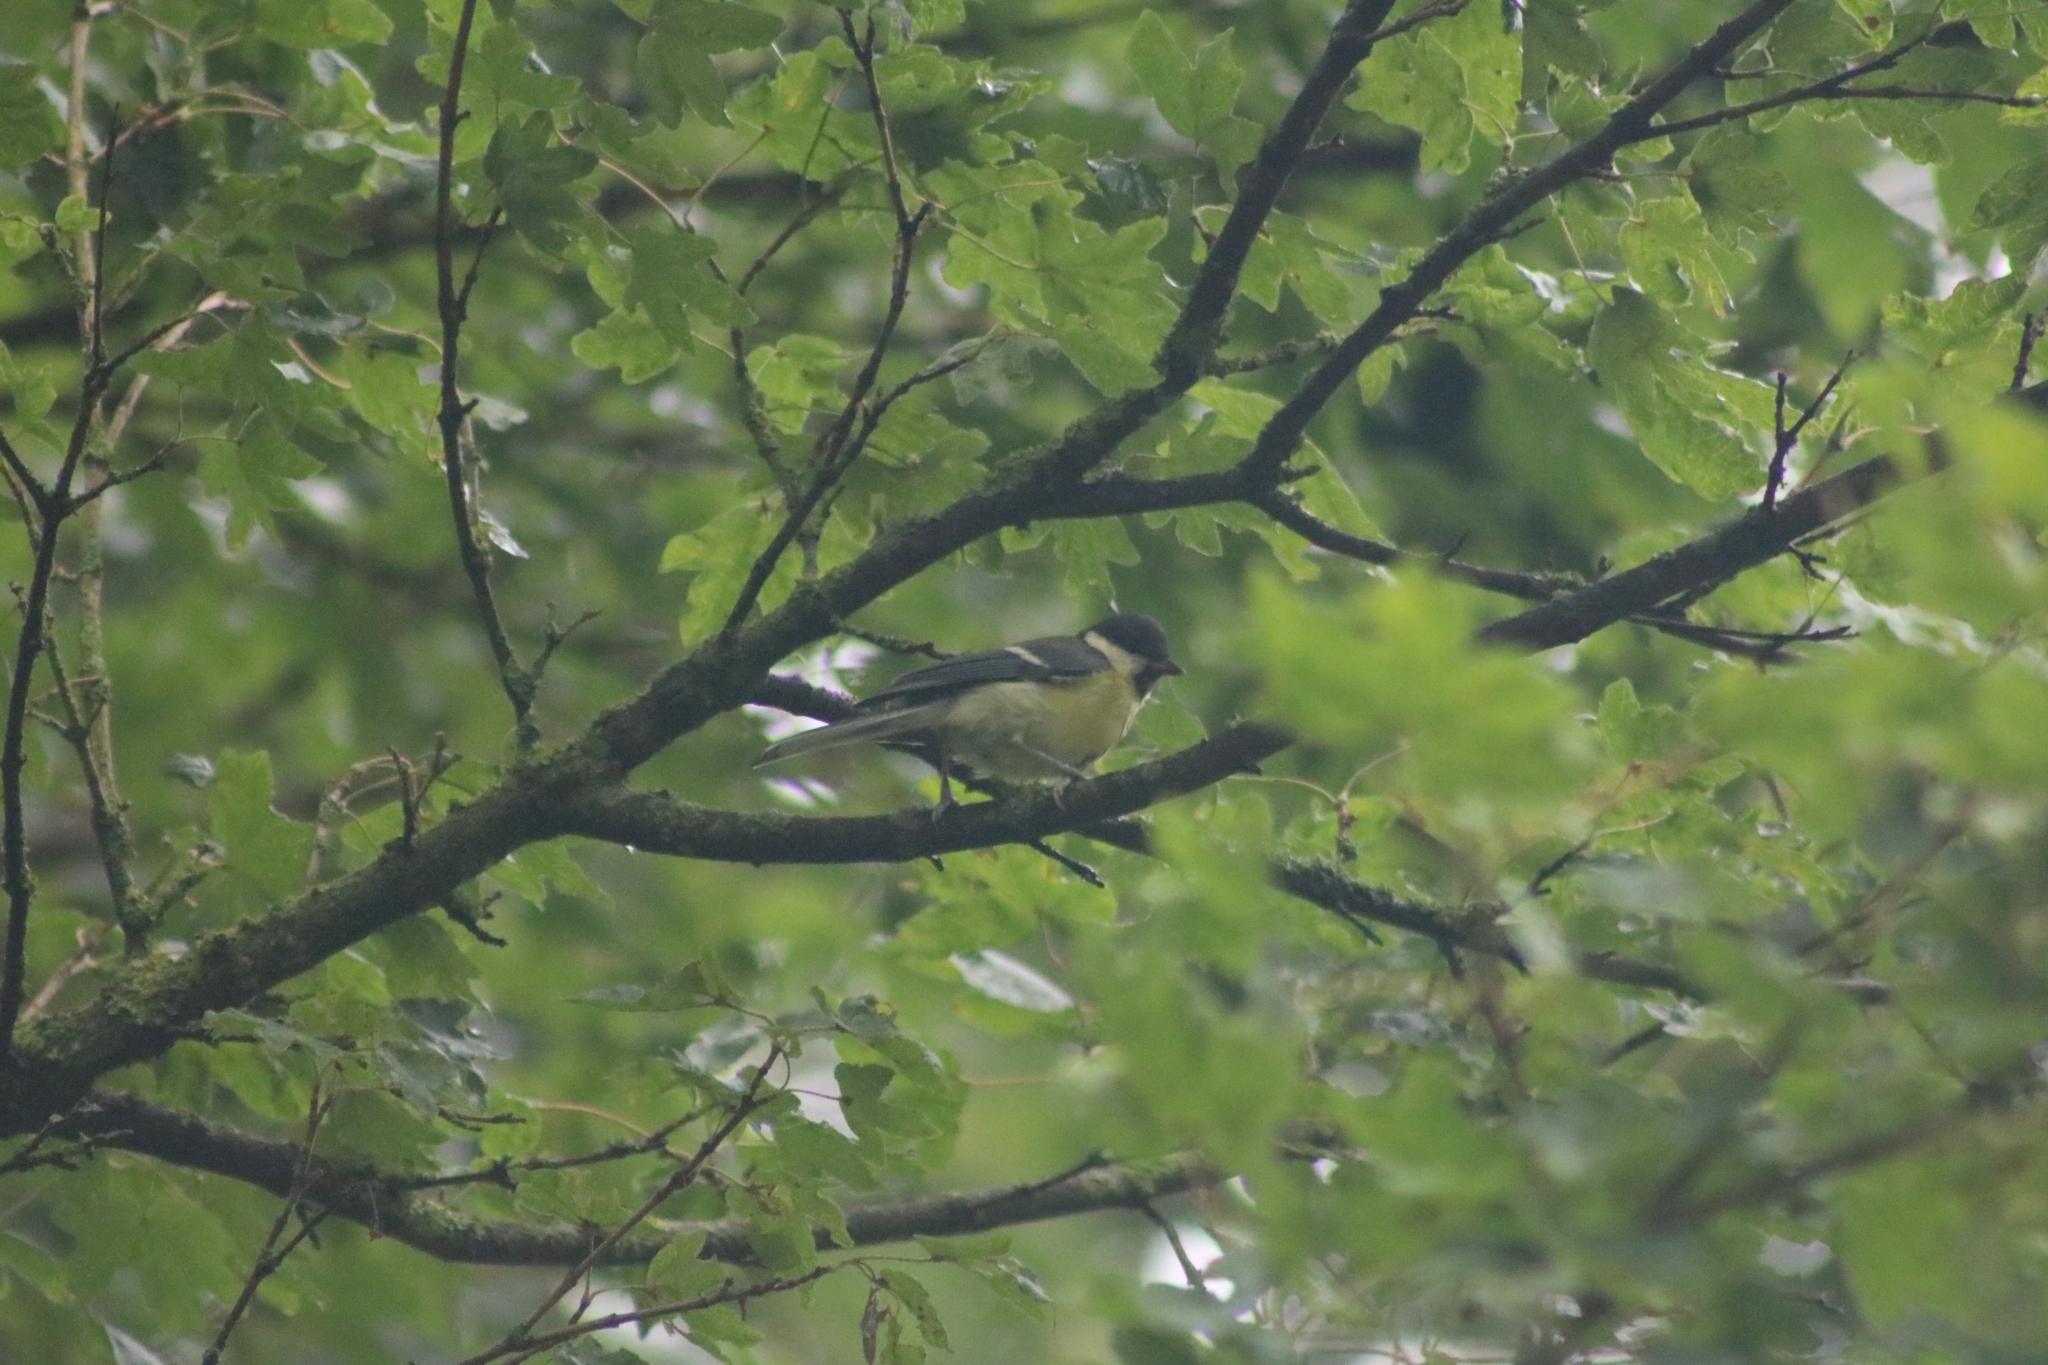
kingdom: Animalia
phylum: Chordata
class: Aves
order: Passeriformes
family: Paridae
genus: Parus
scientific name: Parus major
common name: Great tit
